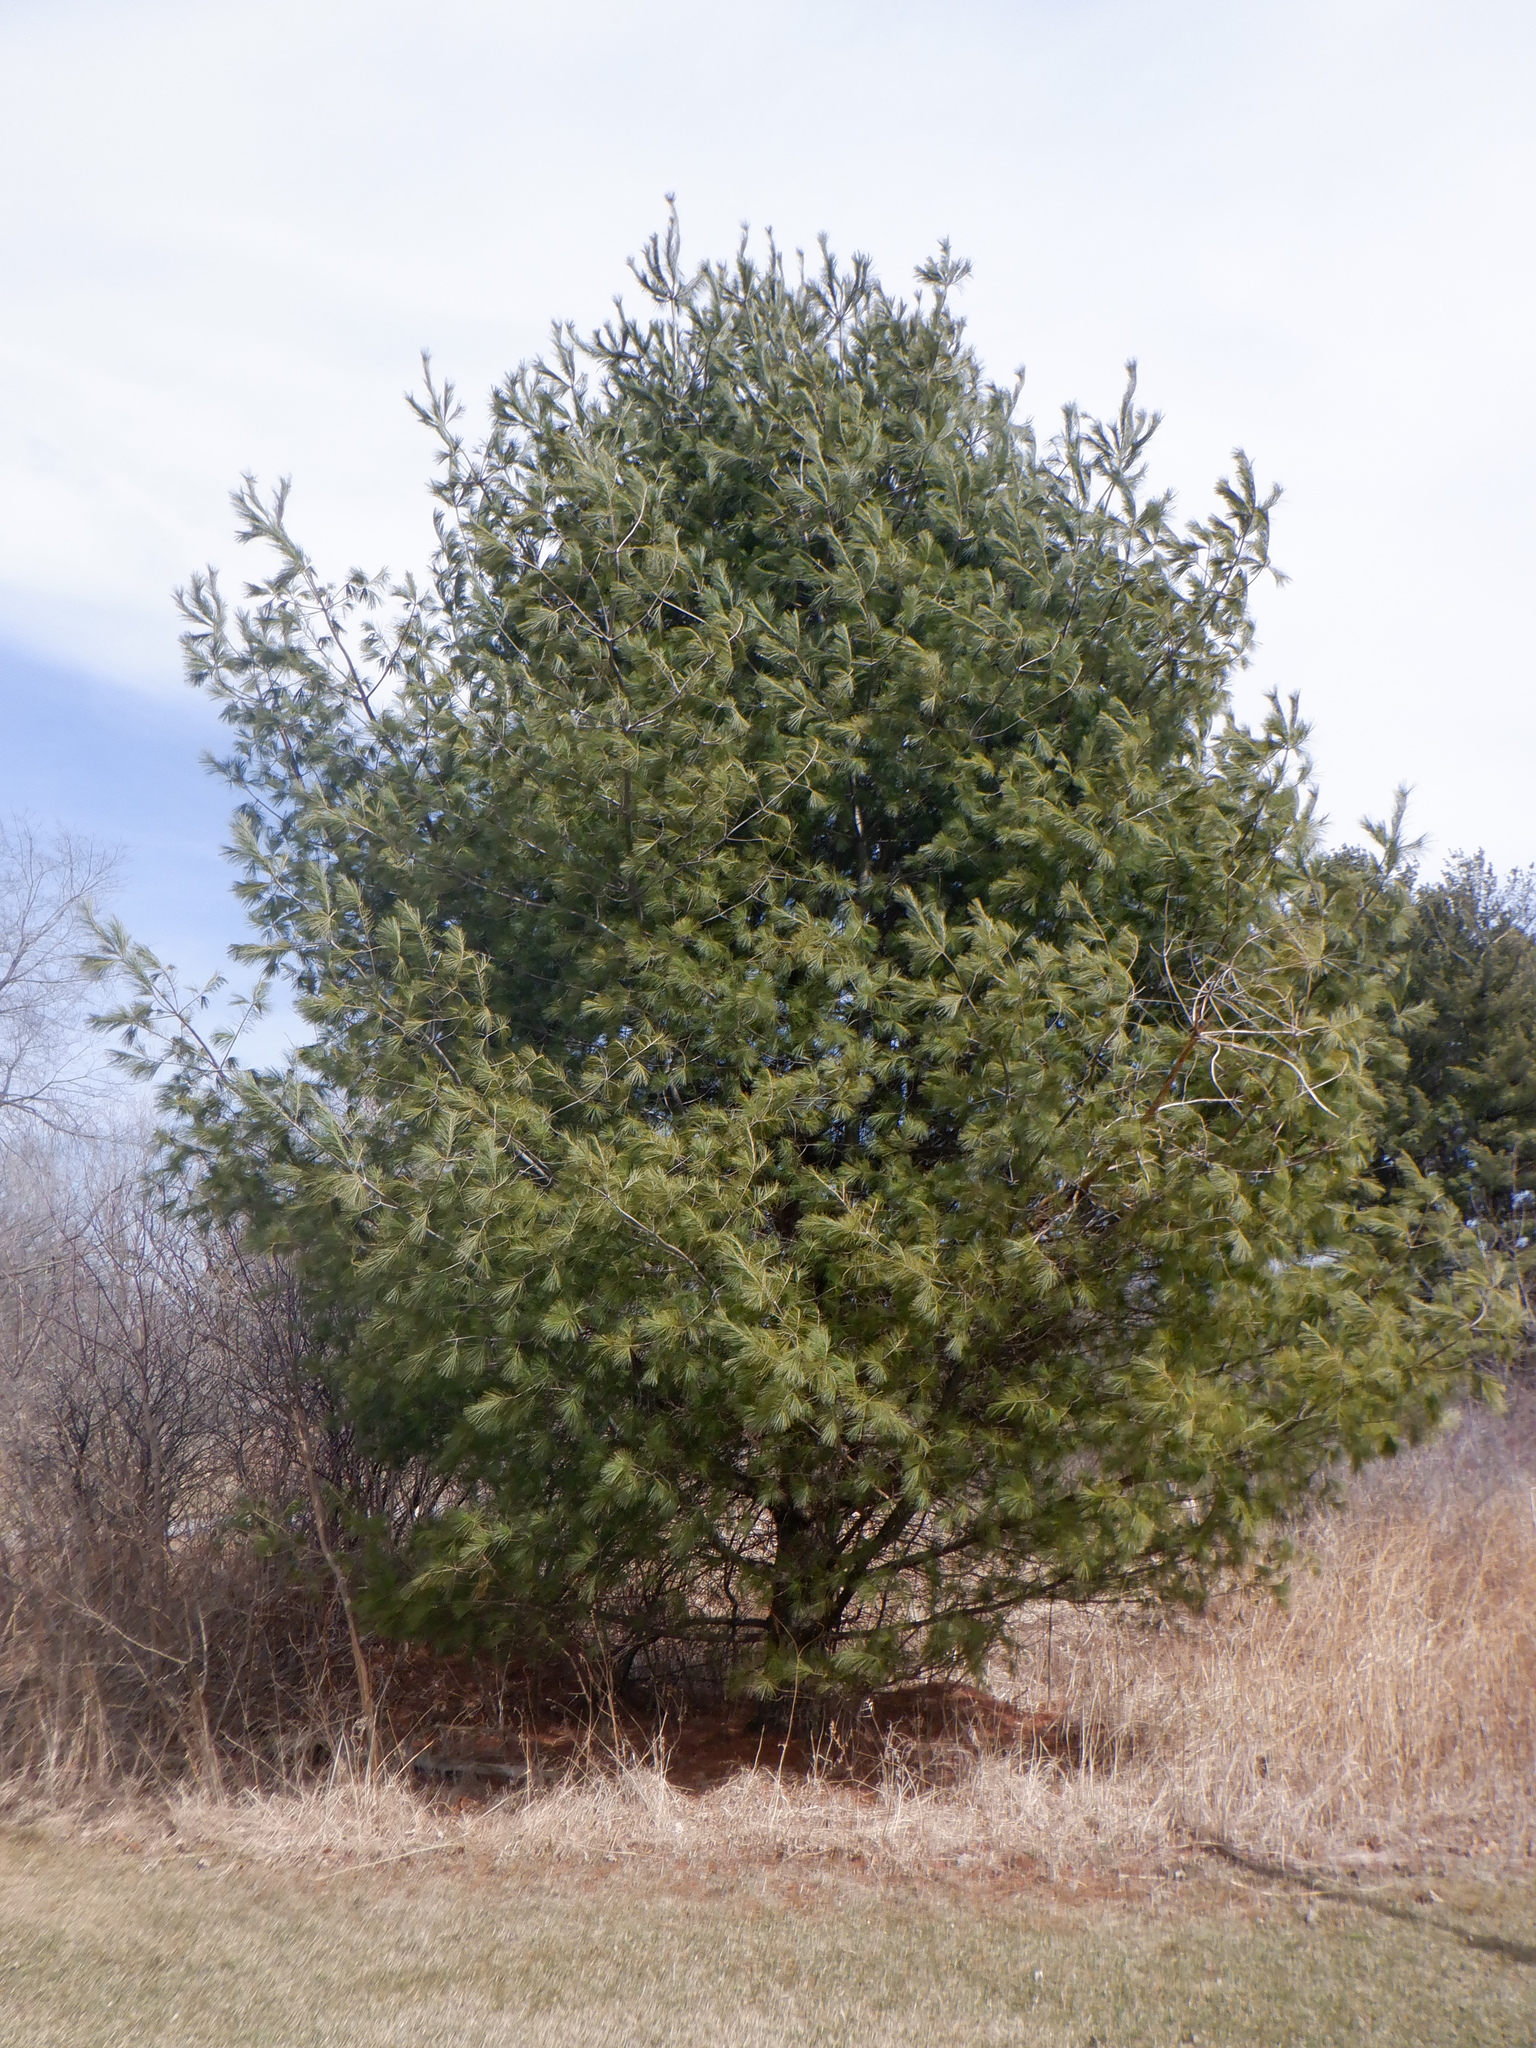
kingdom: Plantae
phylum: Tracheophyta
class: Pinopsida
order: Pinales
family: Pinaceae
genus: Pinus
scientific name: Pinus strobus
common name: Weymouth pine
